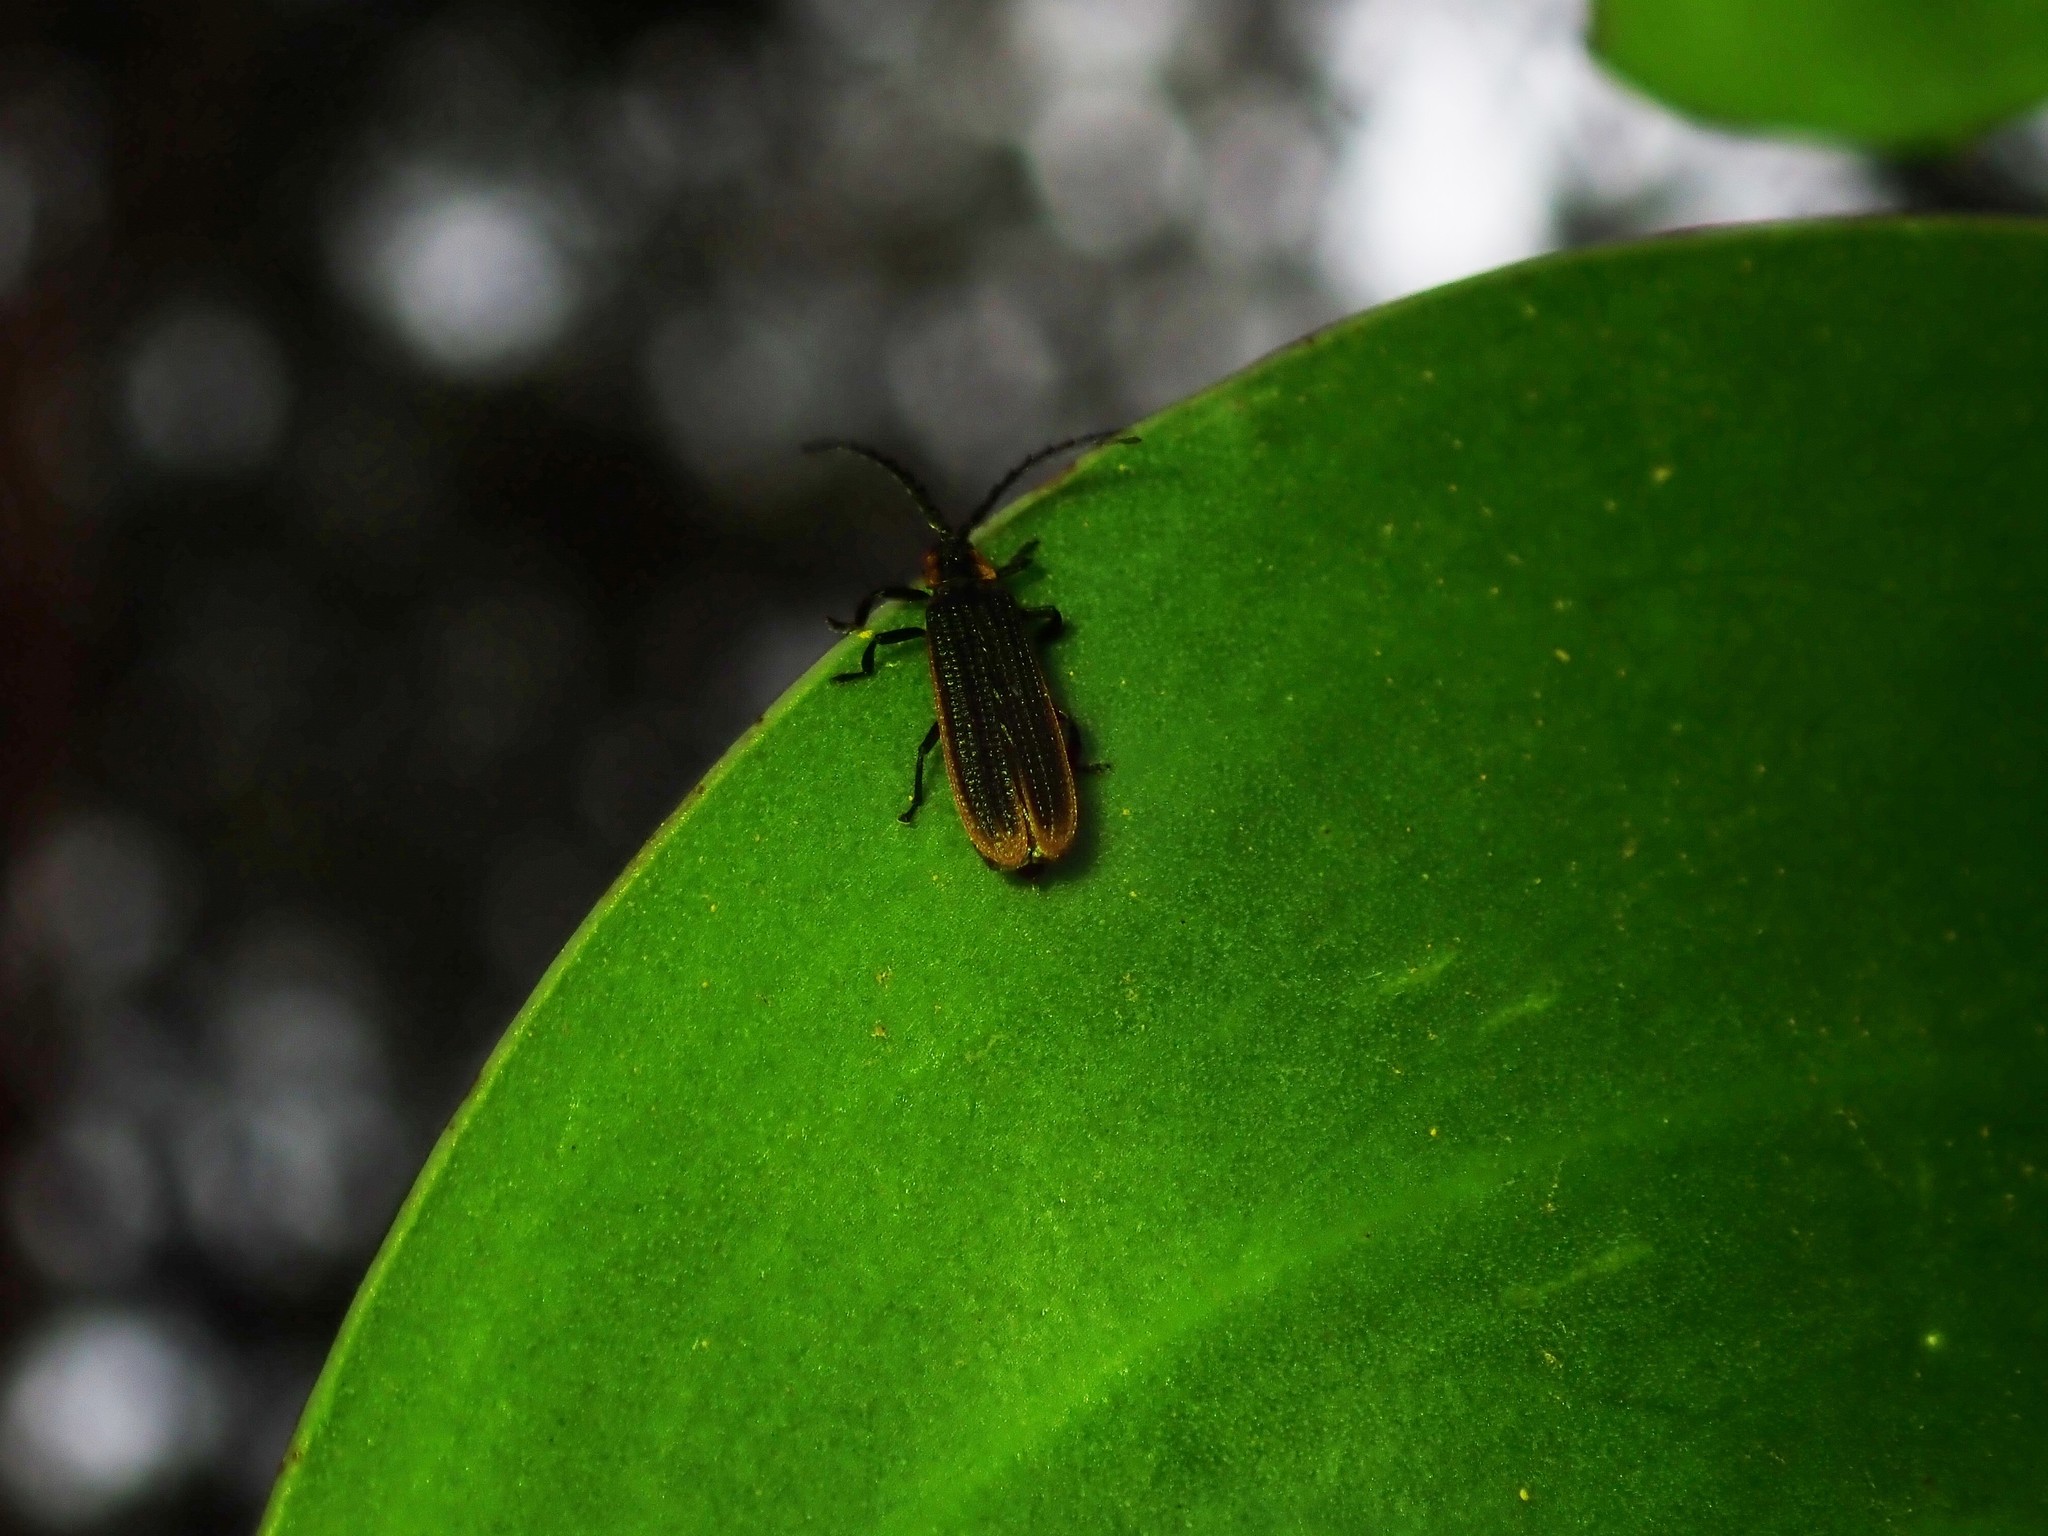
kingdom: Animalia
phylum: Arthropoda
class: Insecta
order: Coleoptera
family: Lycidae
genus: Xylobanus
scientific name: Xylobanus
